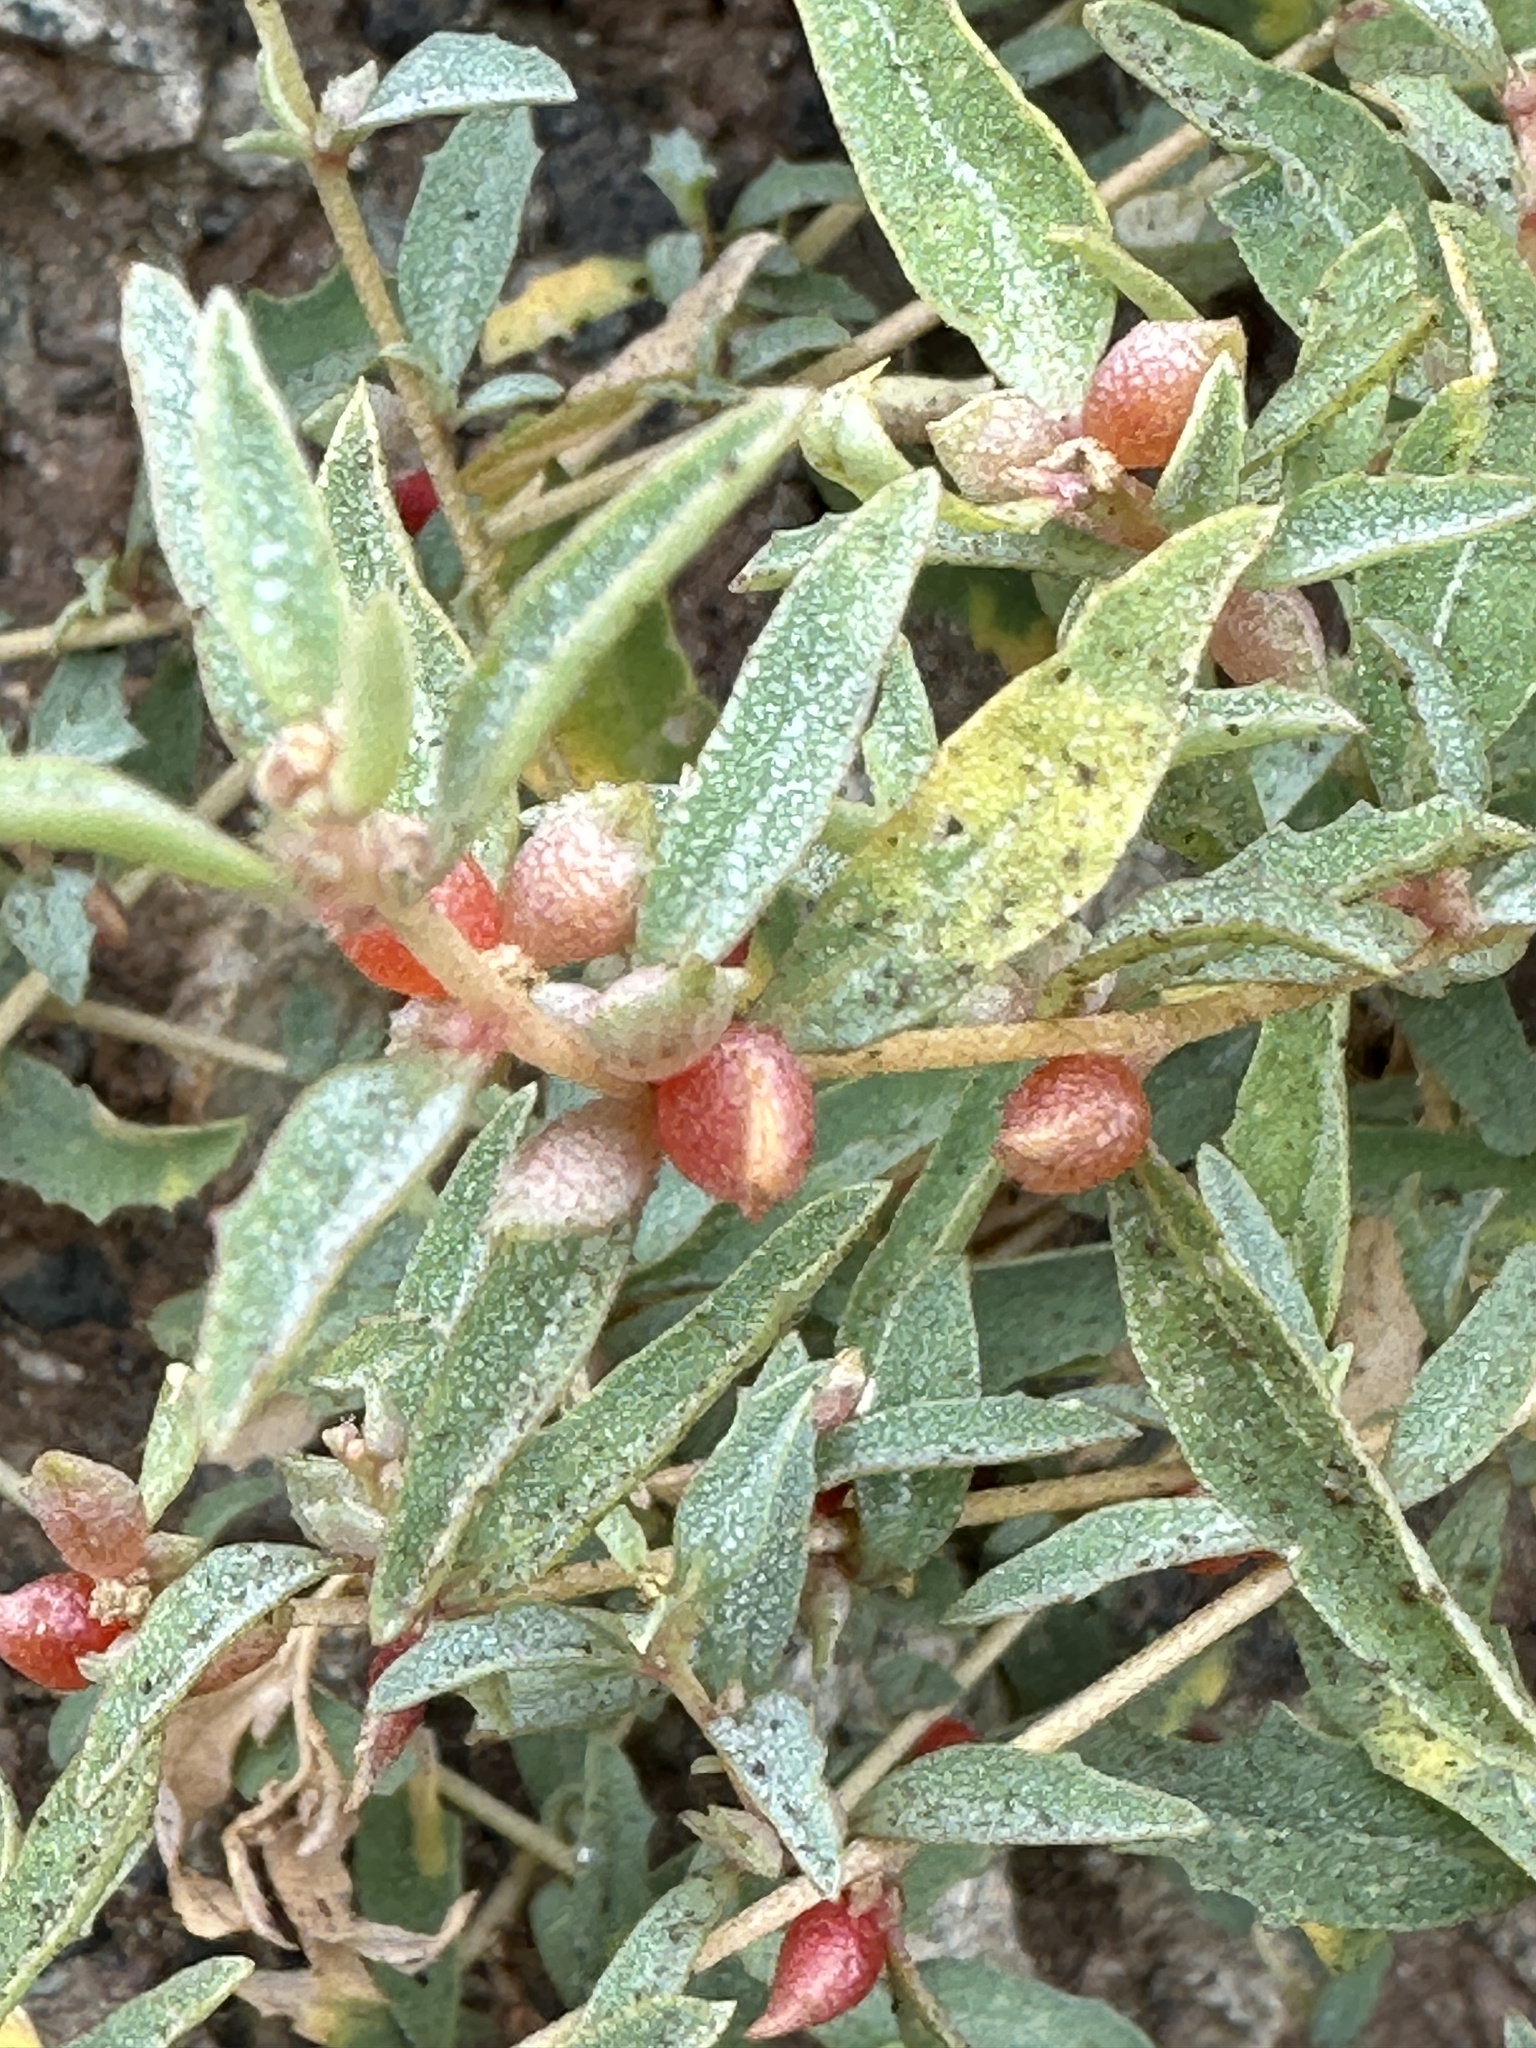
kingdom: Plantae
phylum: Tracheophyta
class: Magnoliopsida
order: Caryophyllales
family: Amaranthaceae
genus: Atriplex
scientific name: Atriplex semibaccata
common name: Australian saltbush
